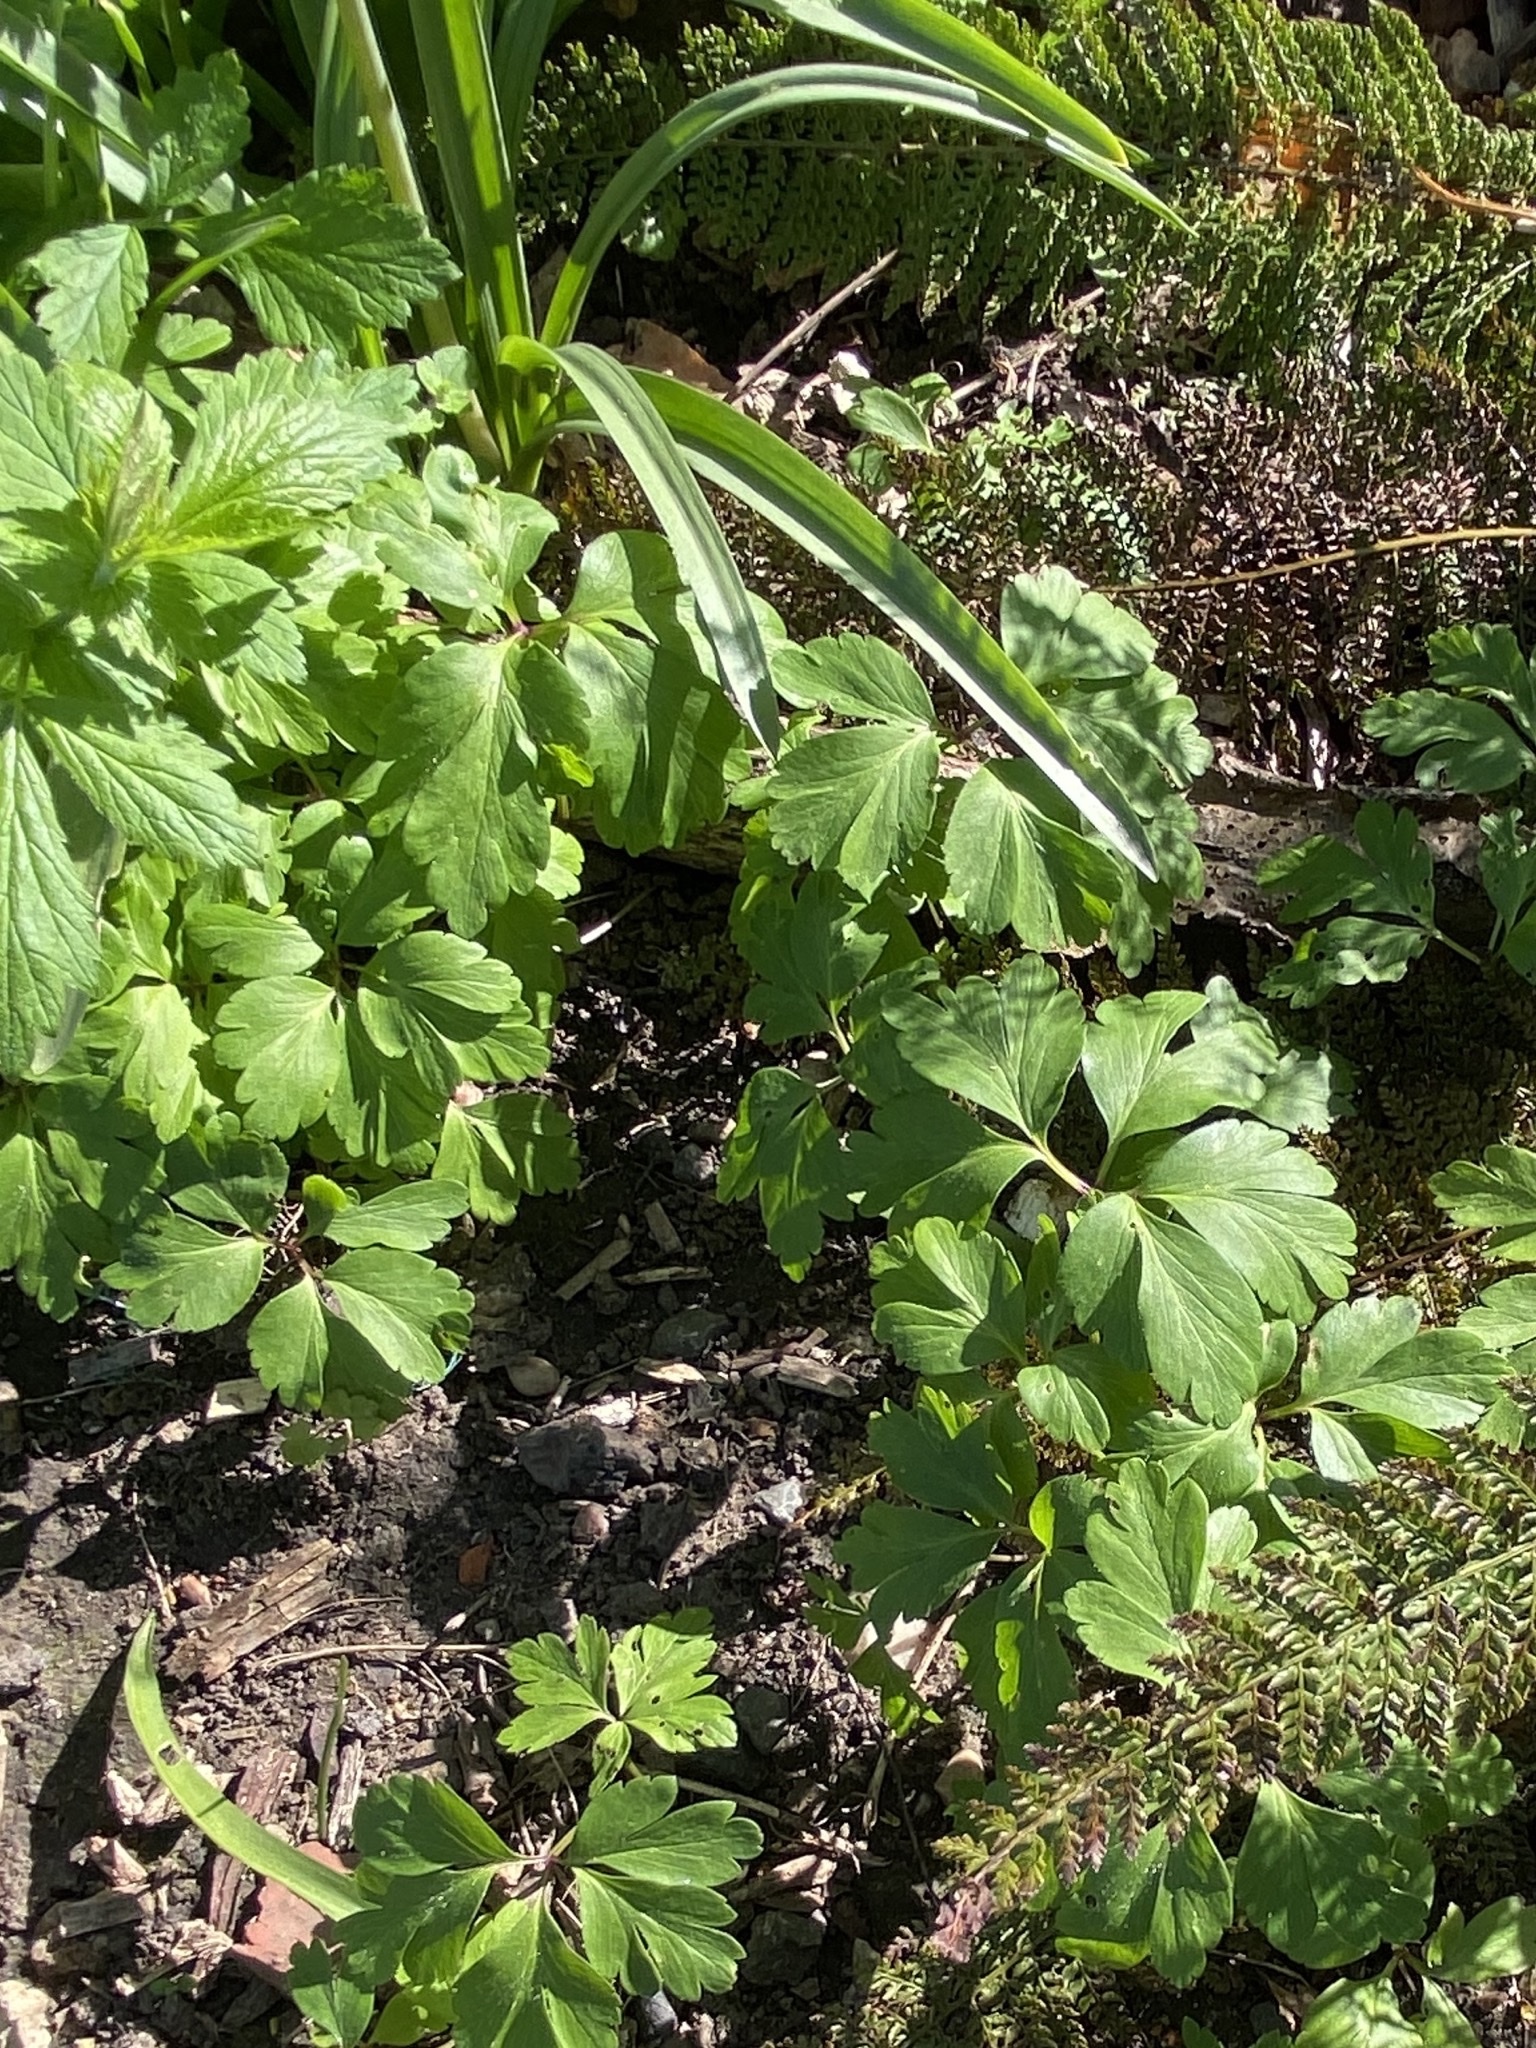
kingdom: Plantae
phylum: Tracheophyta
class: Magnoliopsida
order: Ranunculales
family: Ranunculaceae
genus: Anemone
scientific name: Anemone nemorosa
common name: Wood anemone
